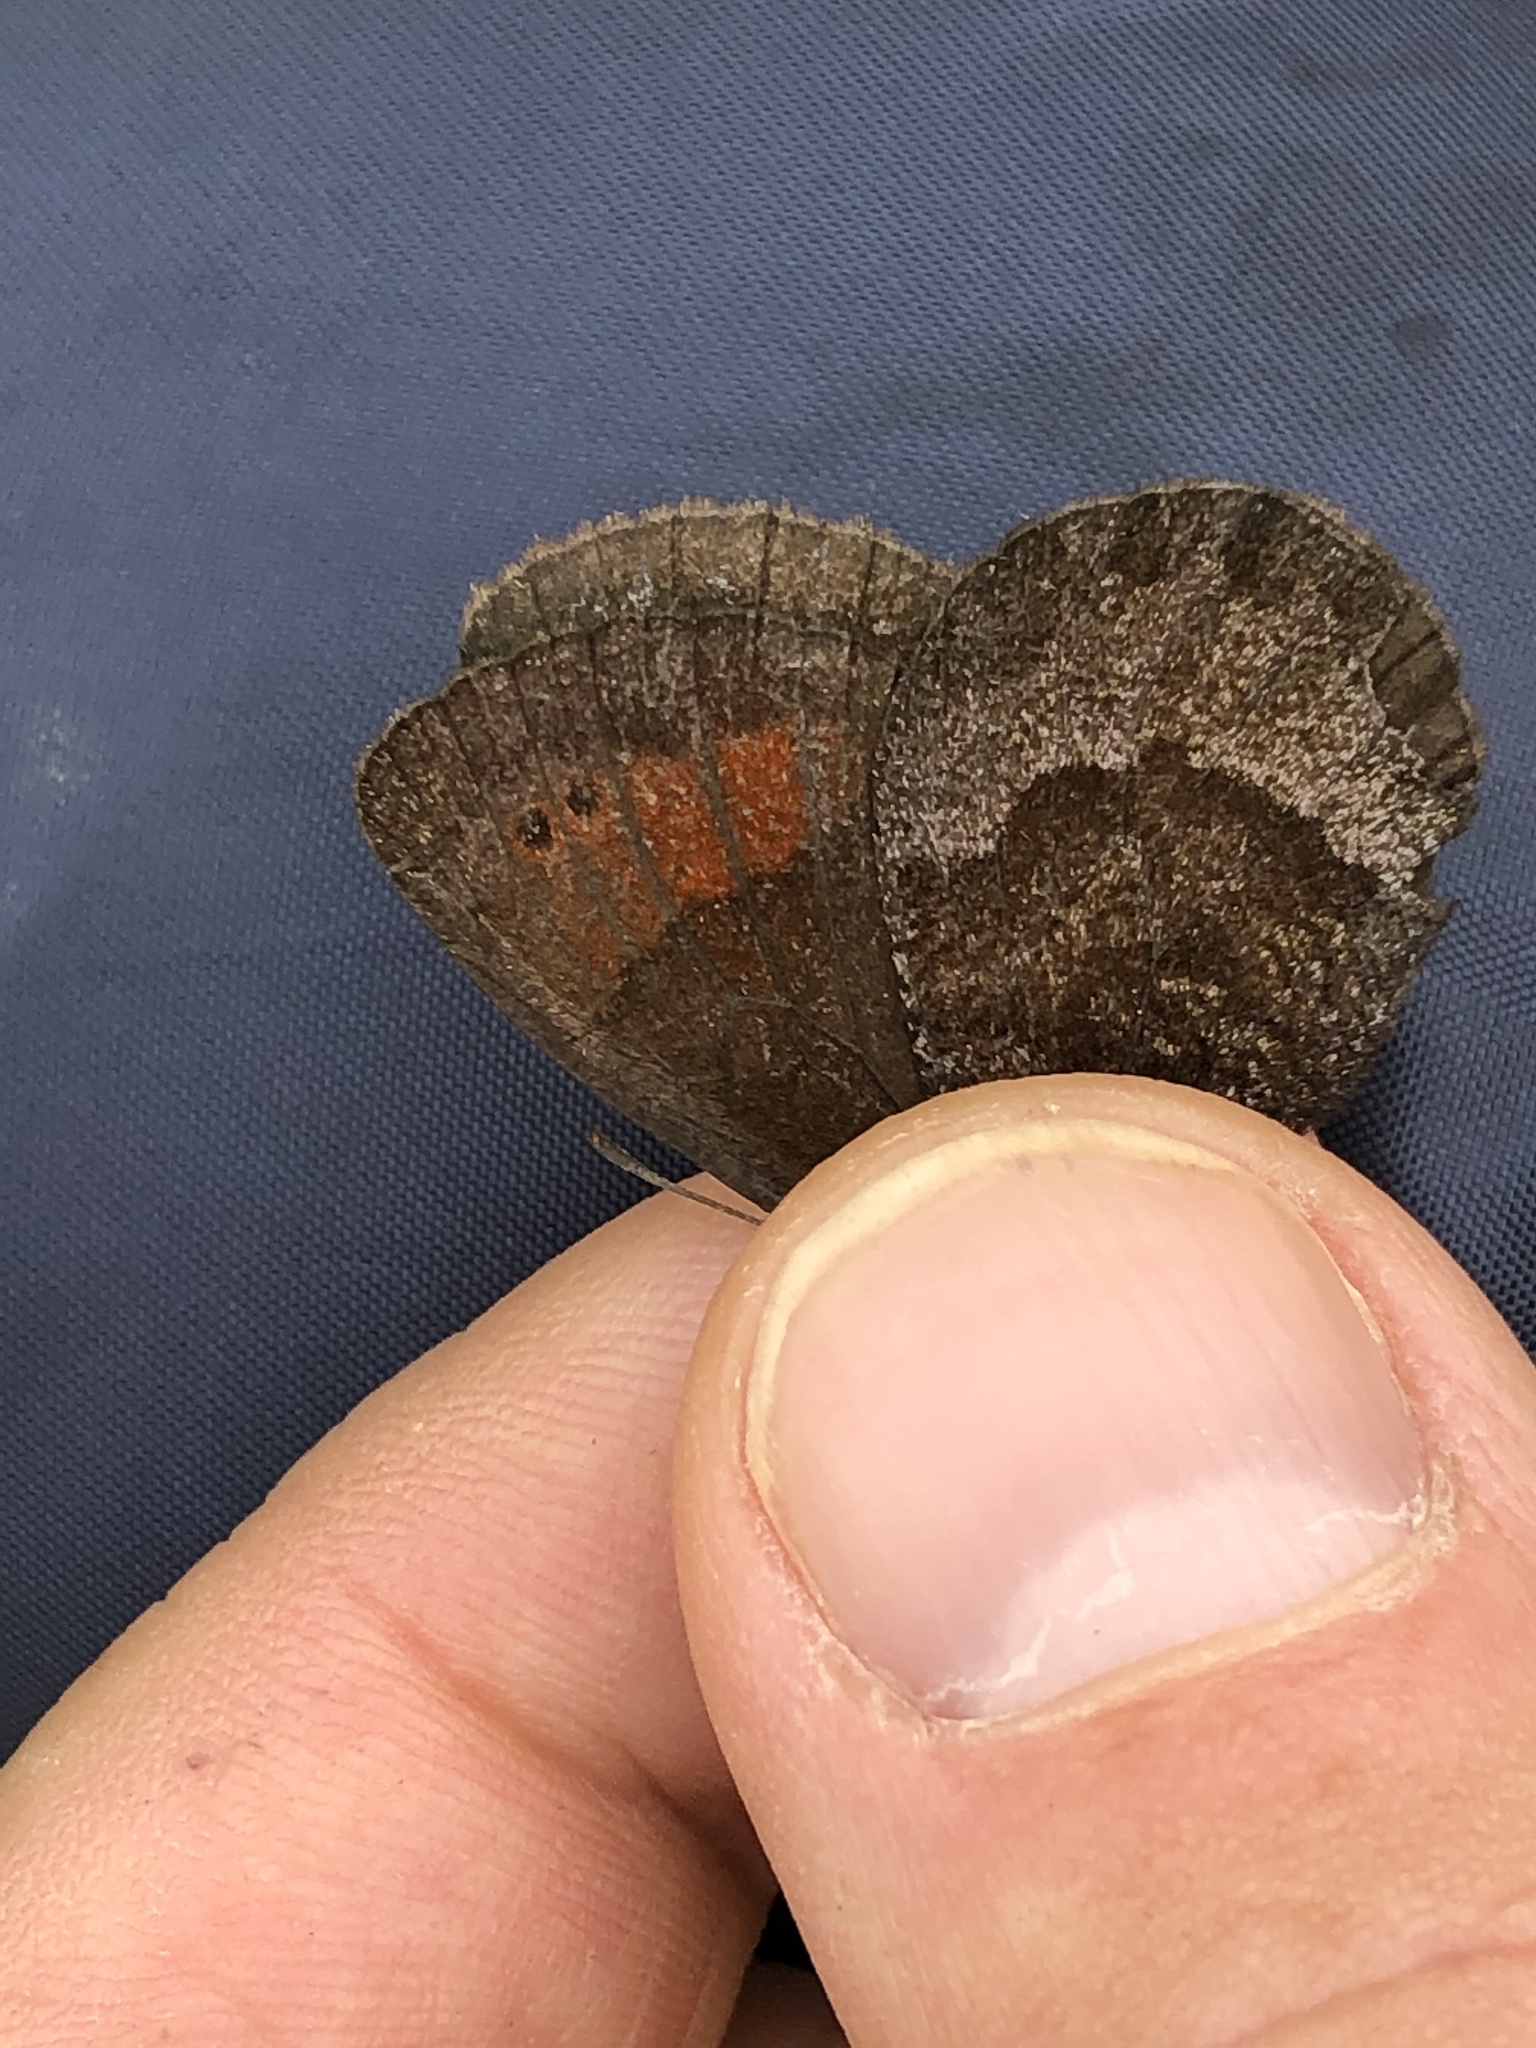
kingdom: Animalia
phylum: Arthropoda
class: Insecta
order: Lepidoptera
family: Nymphalidae
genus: Erebia
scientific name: Erebia pronoe
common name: Water ringlet
